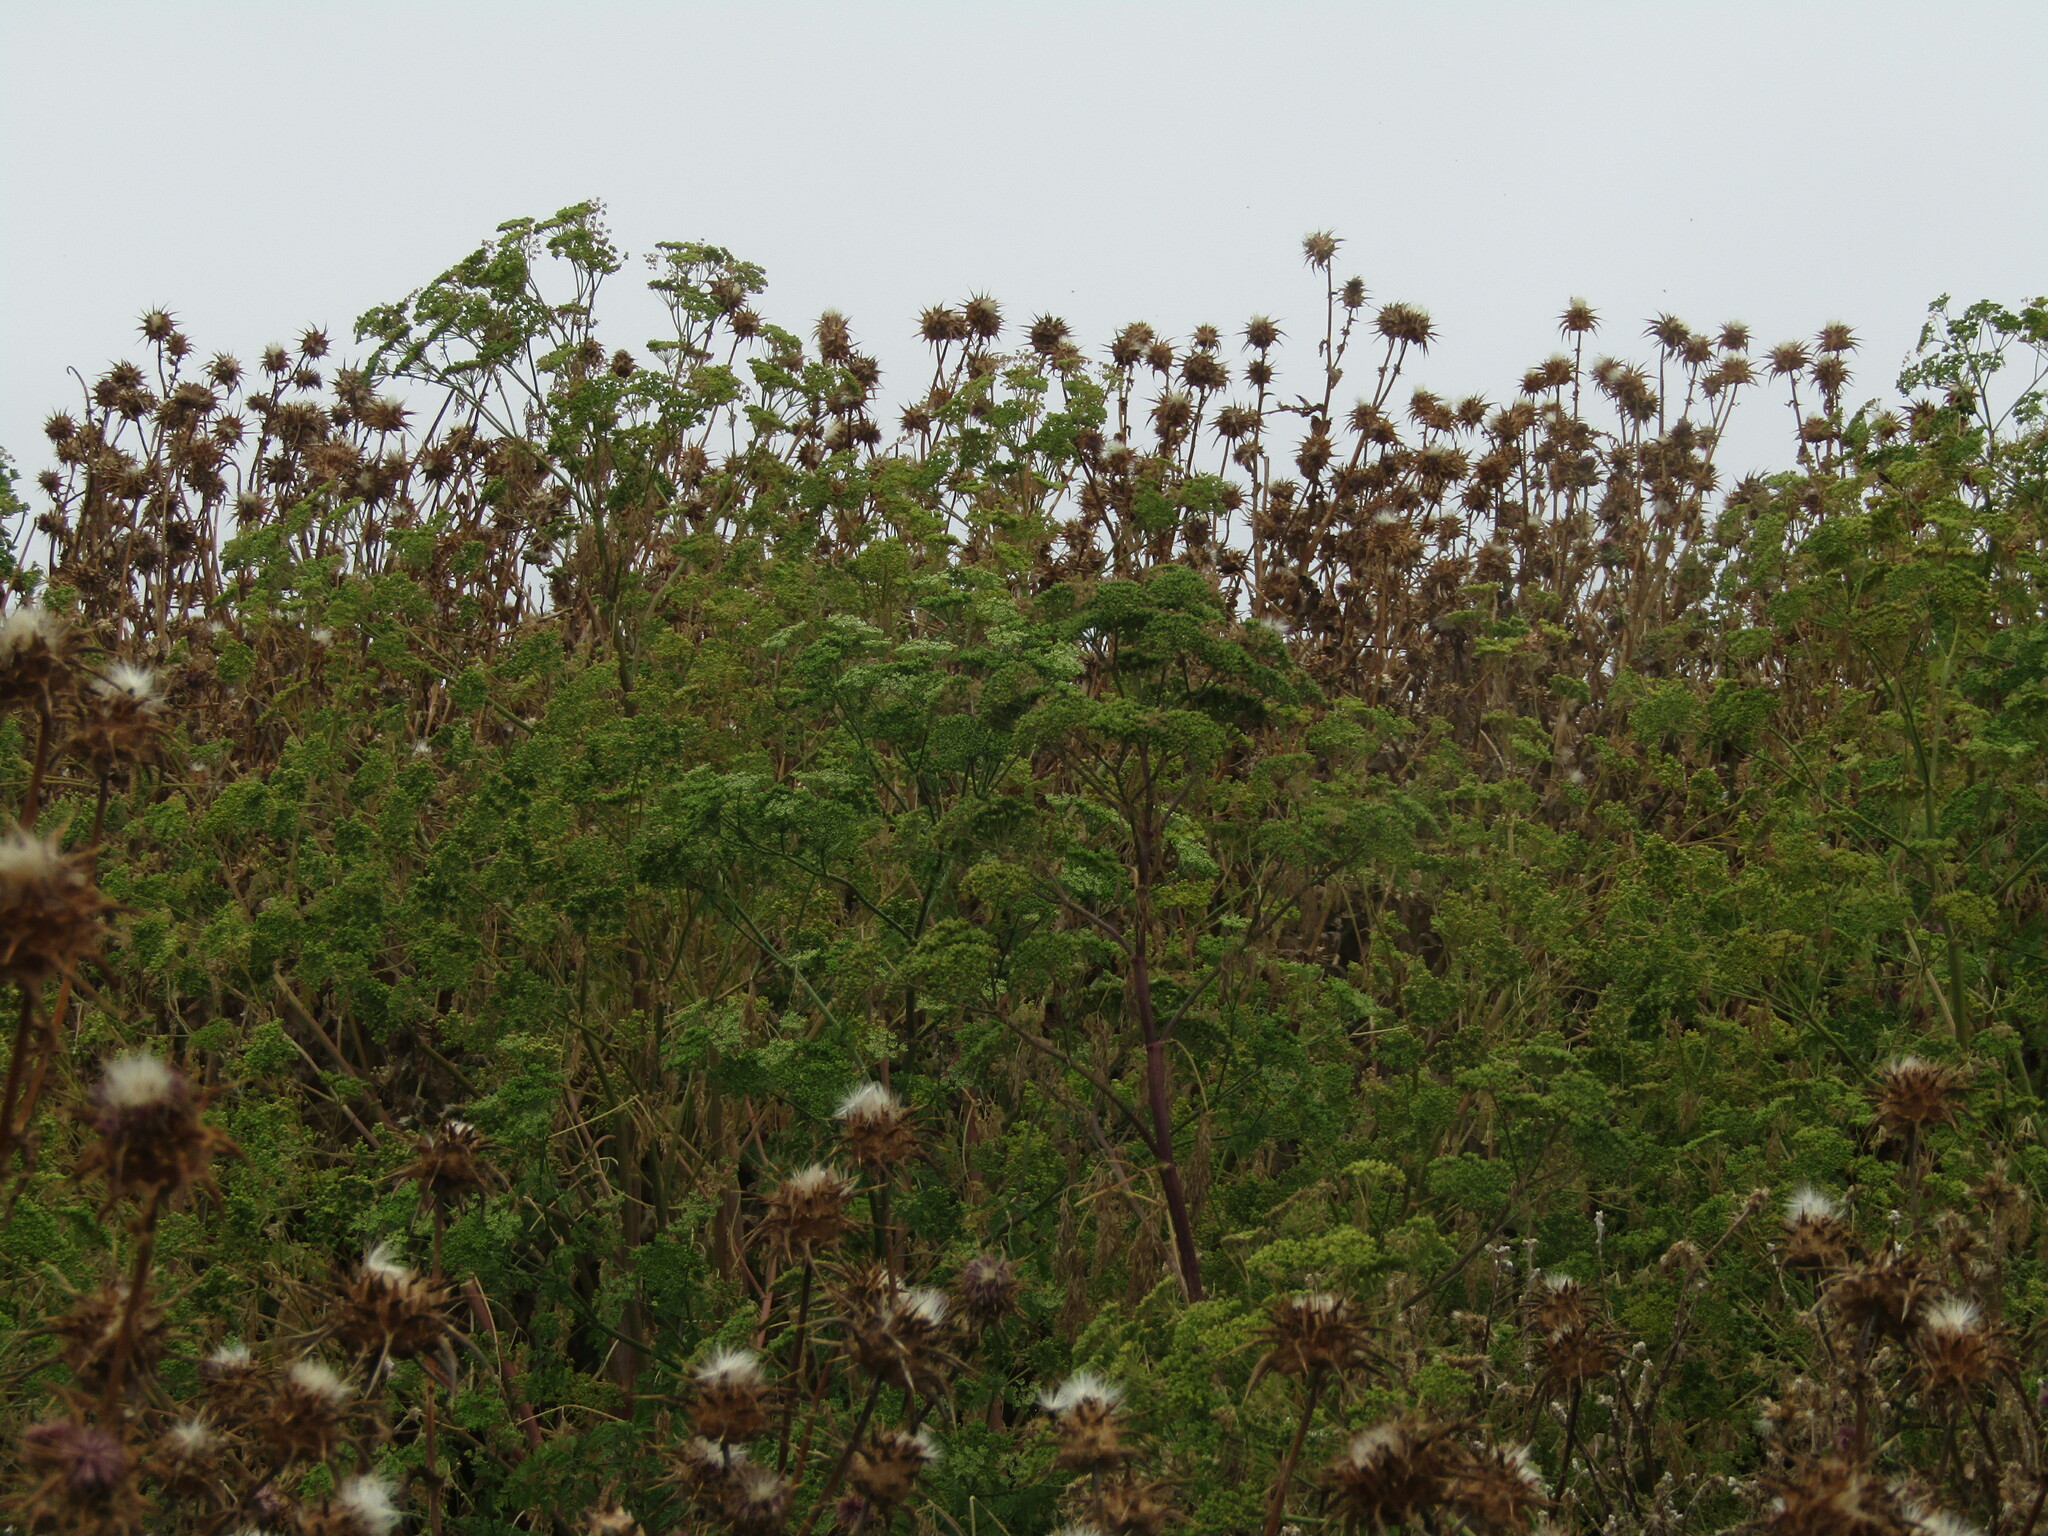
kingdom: Plantae
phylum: Tracheophyta
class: Magnoliopsida
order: Apiales
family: Apiaceae
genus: Conium
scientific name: Conium maculatum
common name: Hemlock
